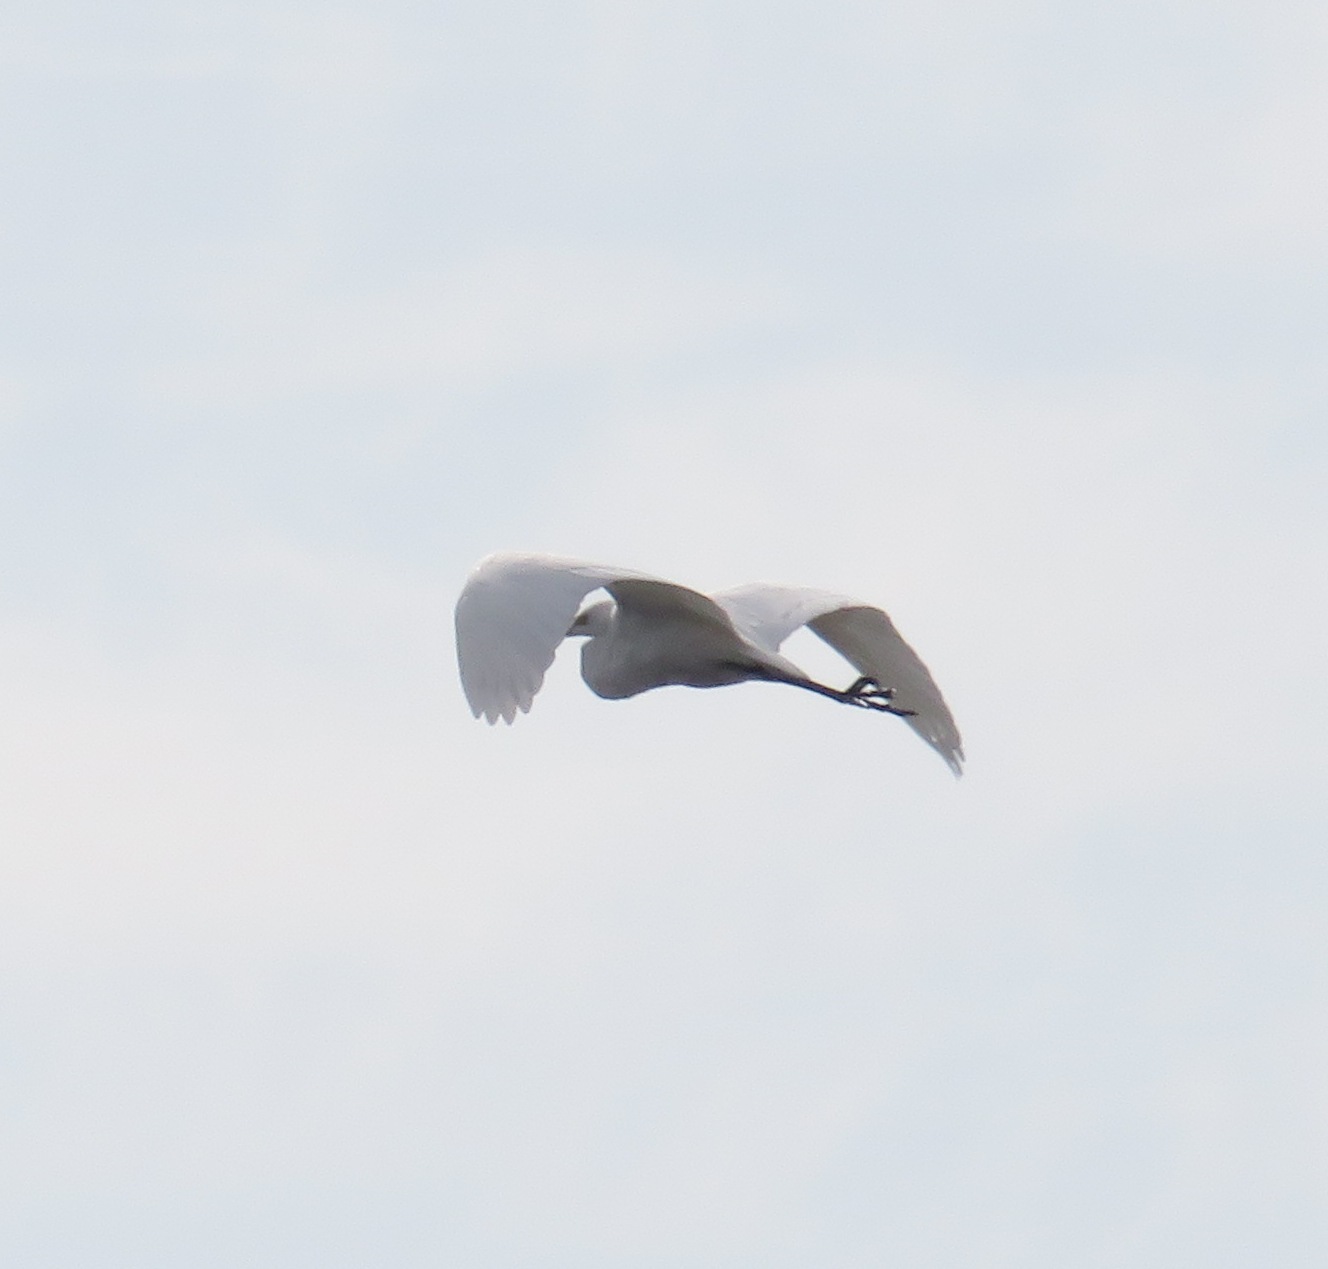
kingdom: Animalia
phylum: Chordata
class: Aves
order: Pelecaniformes
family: Ardeidae
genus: Ardea
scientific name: Ardea alba
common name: Great egret
